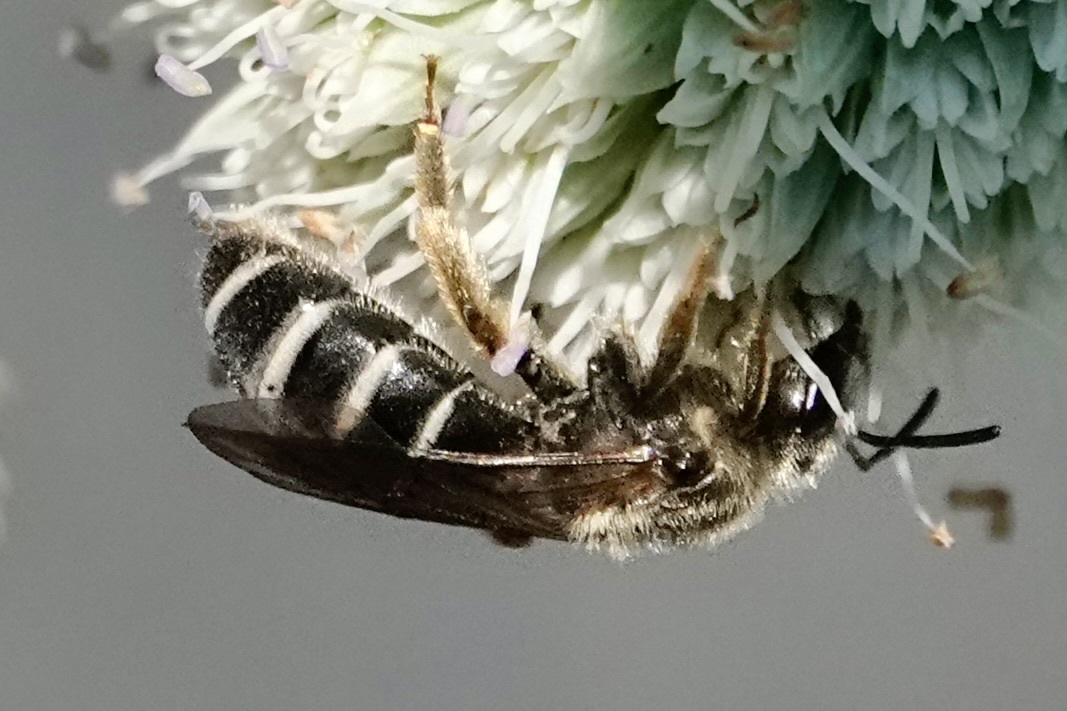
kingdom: Animalia
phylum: Arthropoda
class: Insecta
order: Hymenoptera
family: Halictidae
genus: Halictus
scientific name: Halictus rubicundus
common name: Orange-legged furrow bee
